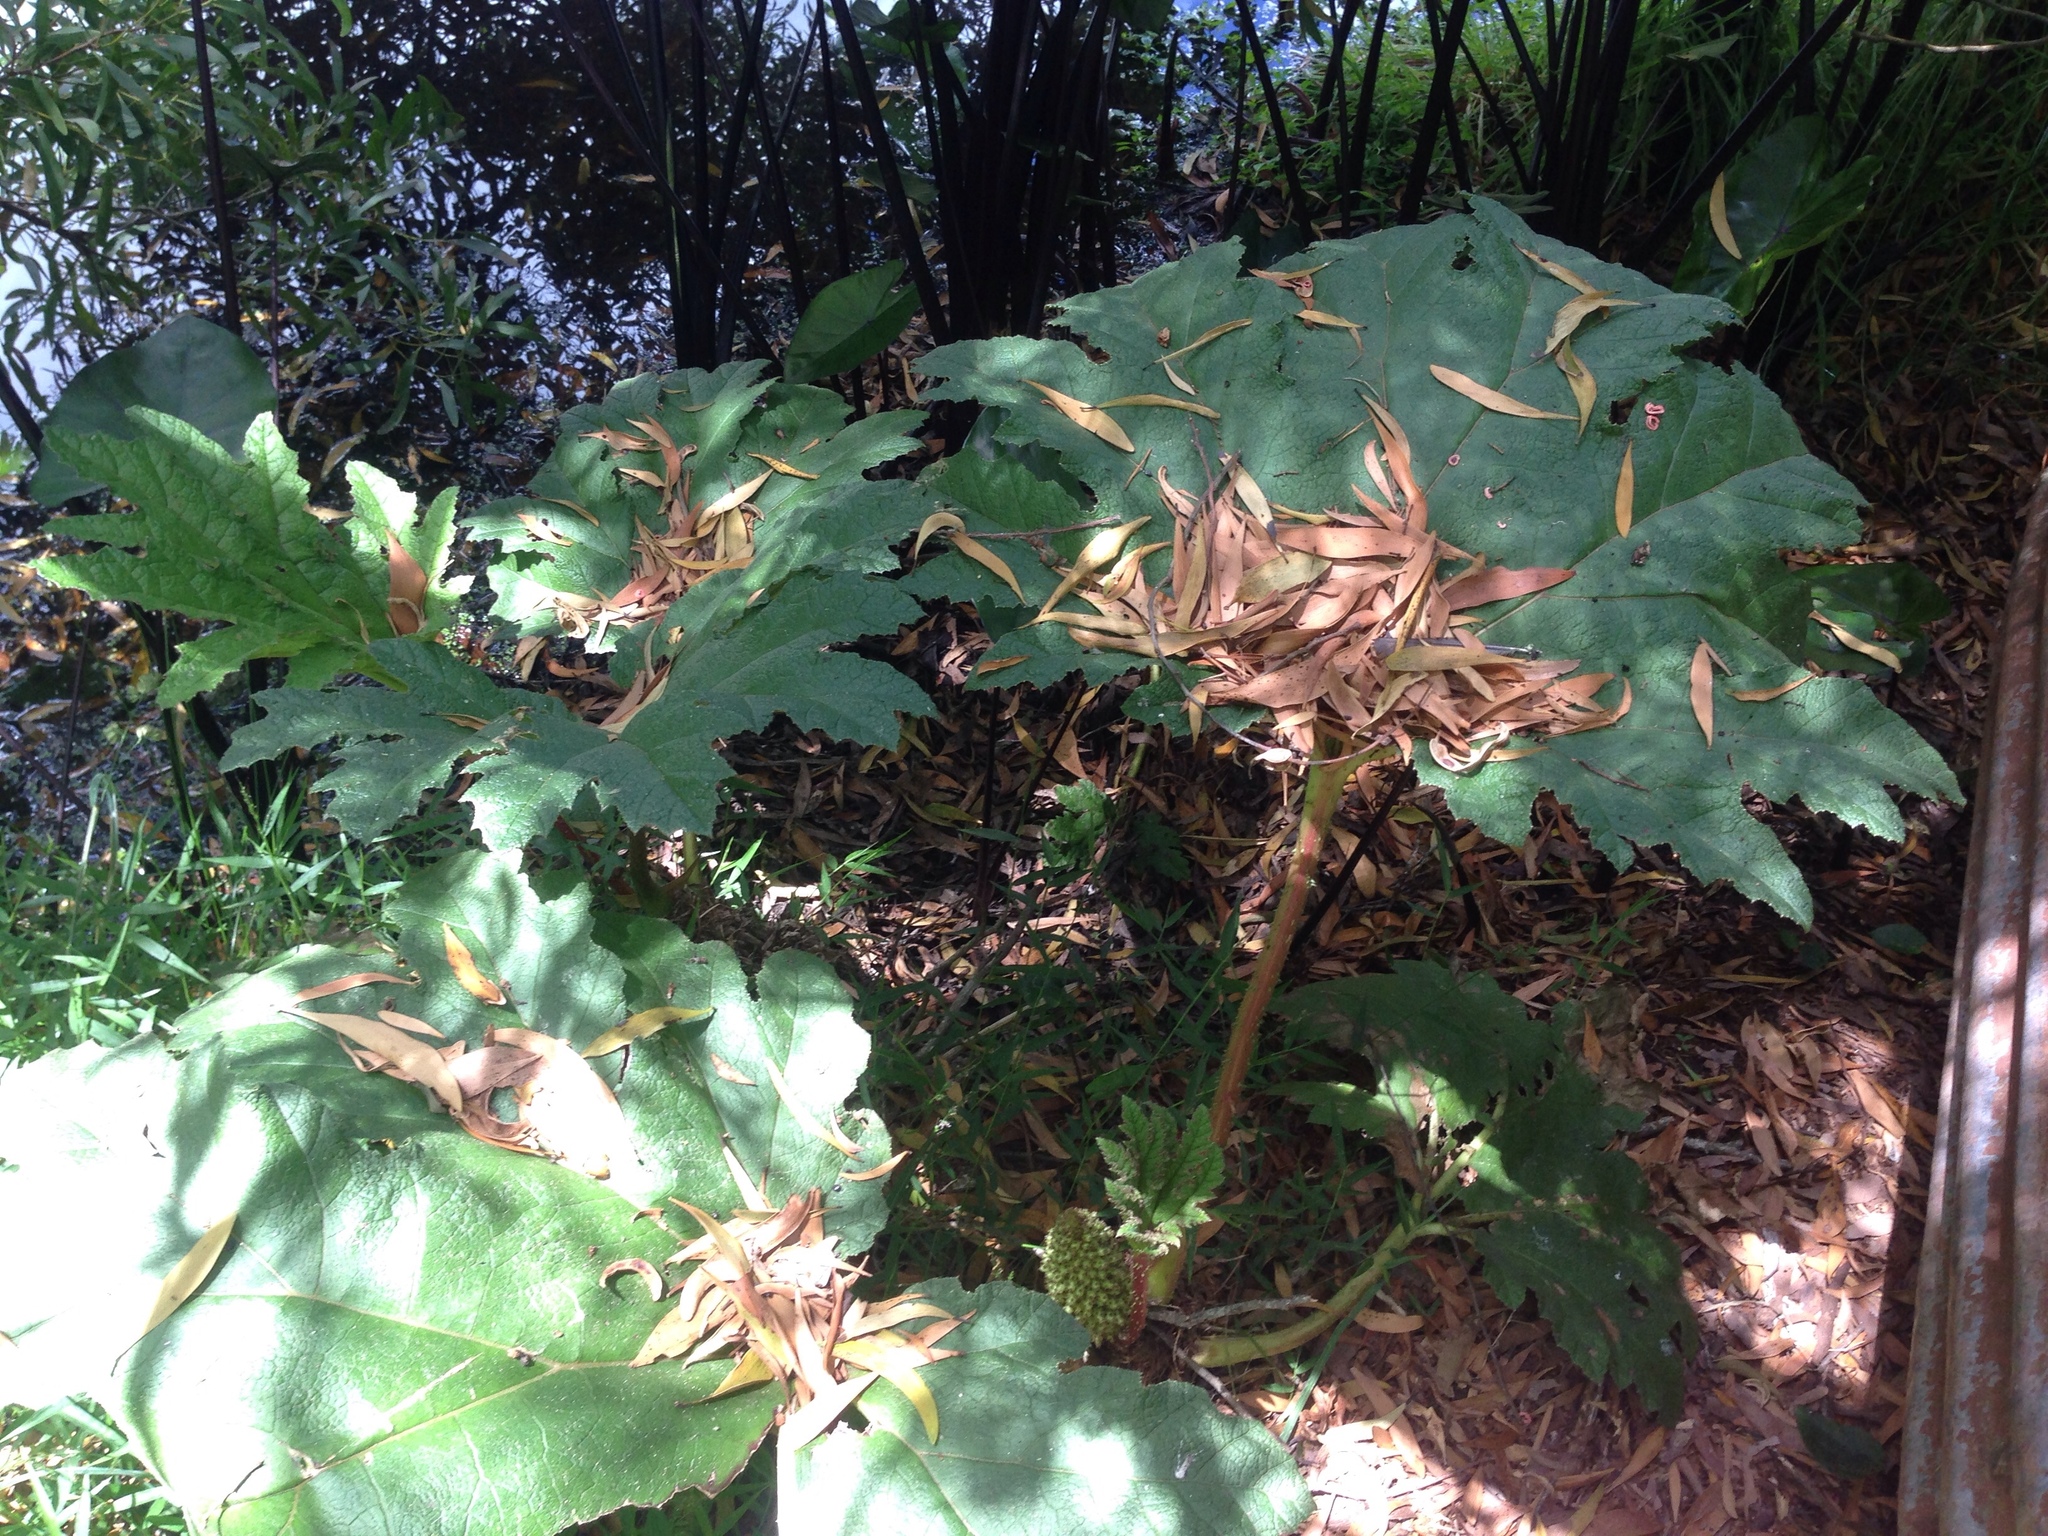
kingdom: Plantae
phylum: Tracheophyta
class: Magnoliopsida
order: Gunnerales
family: Gunneraceae
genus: Gunnera
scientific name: Gunnera tinctoria
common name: Giant-rhubarb
